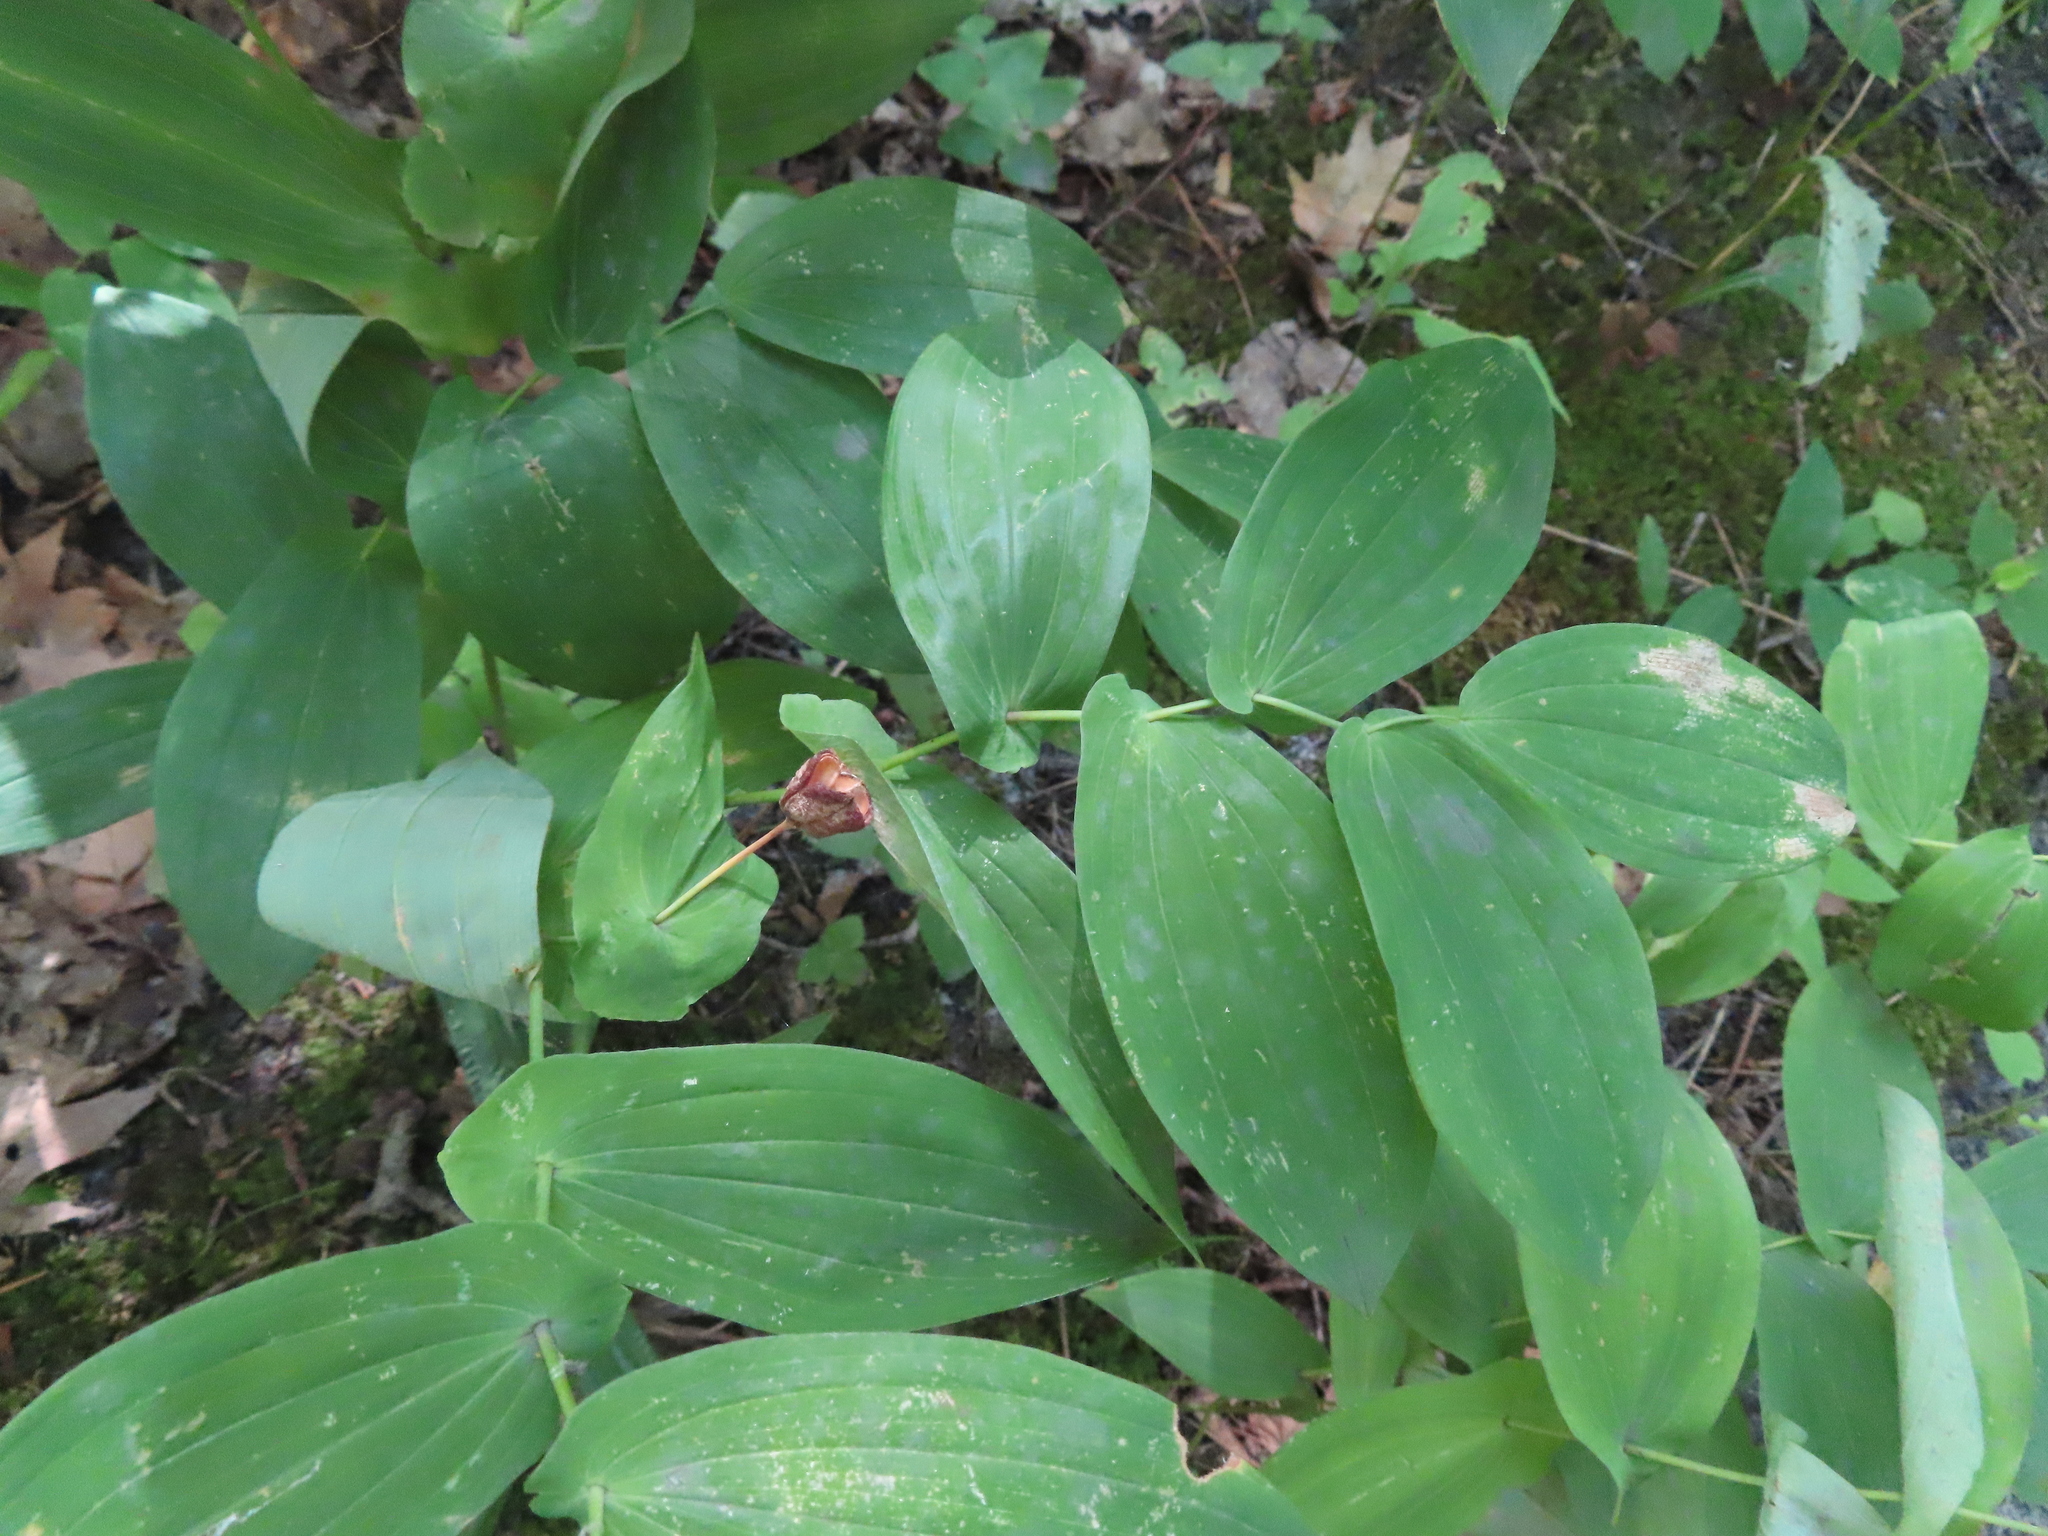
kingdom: Plantae
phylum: Tracheophyta
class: Liliopsida
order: Liliales
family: Colchicaceae
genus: Uvularia
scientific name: Uvularia grandiflora
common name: Bellwort
